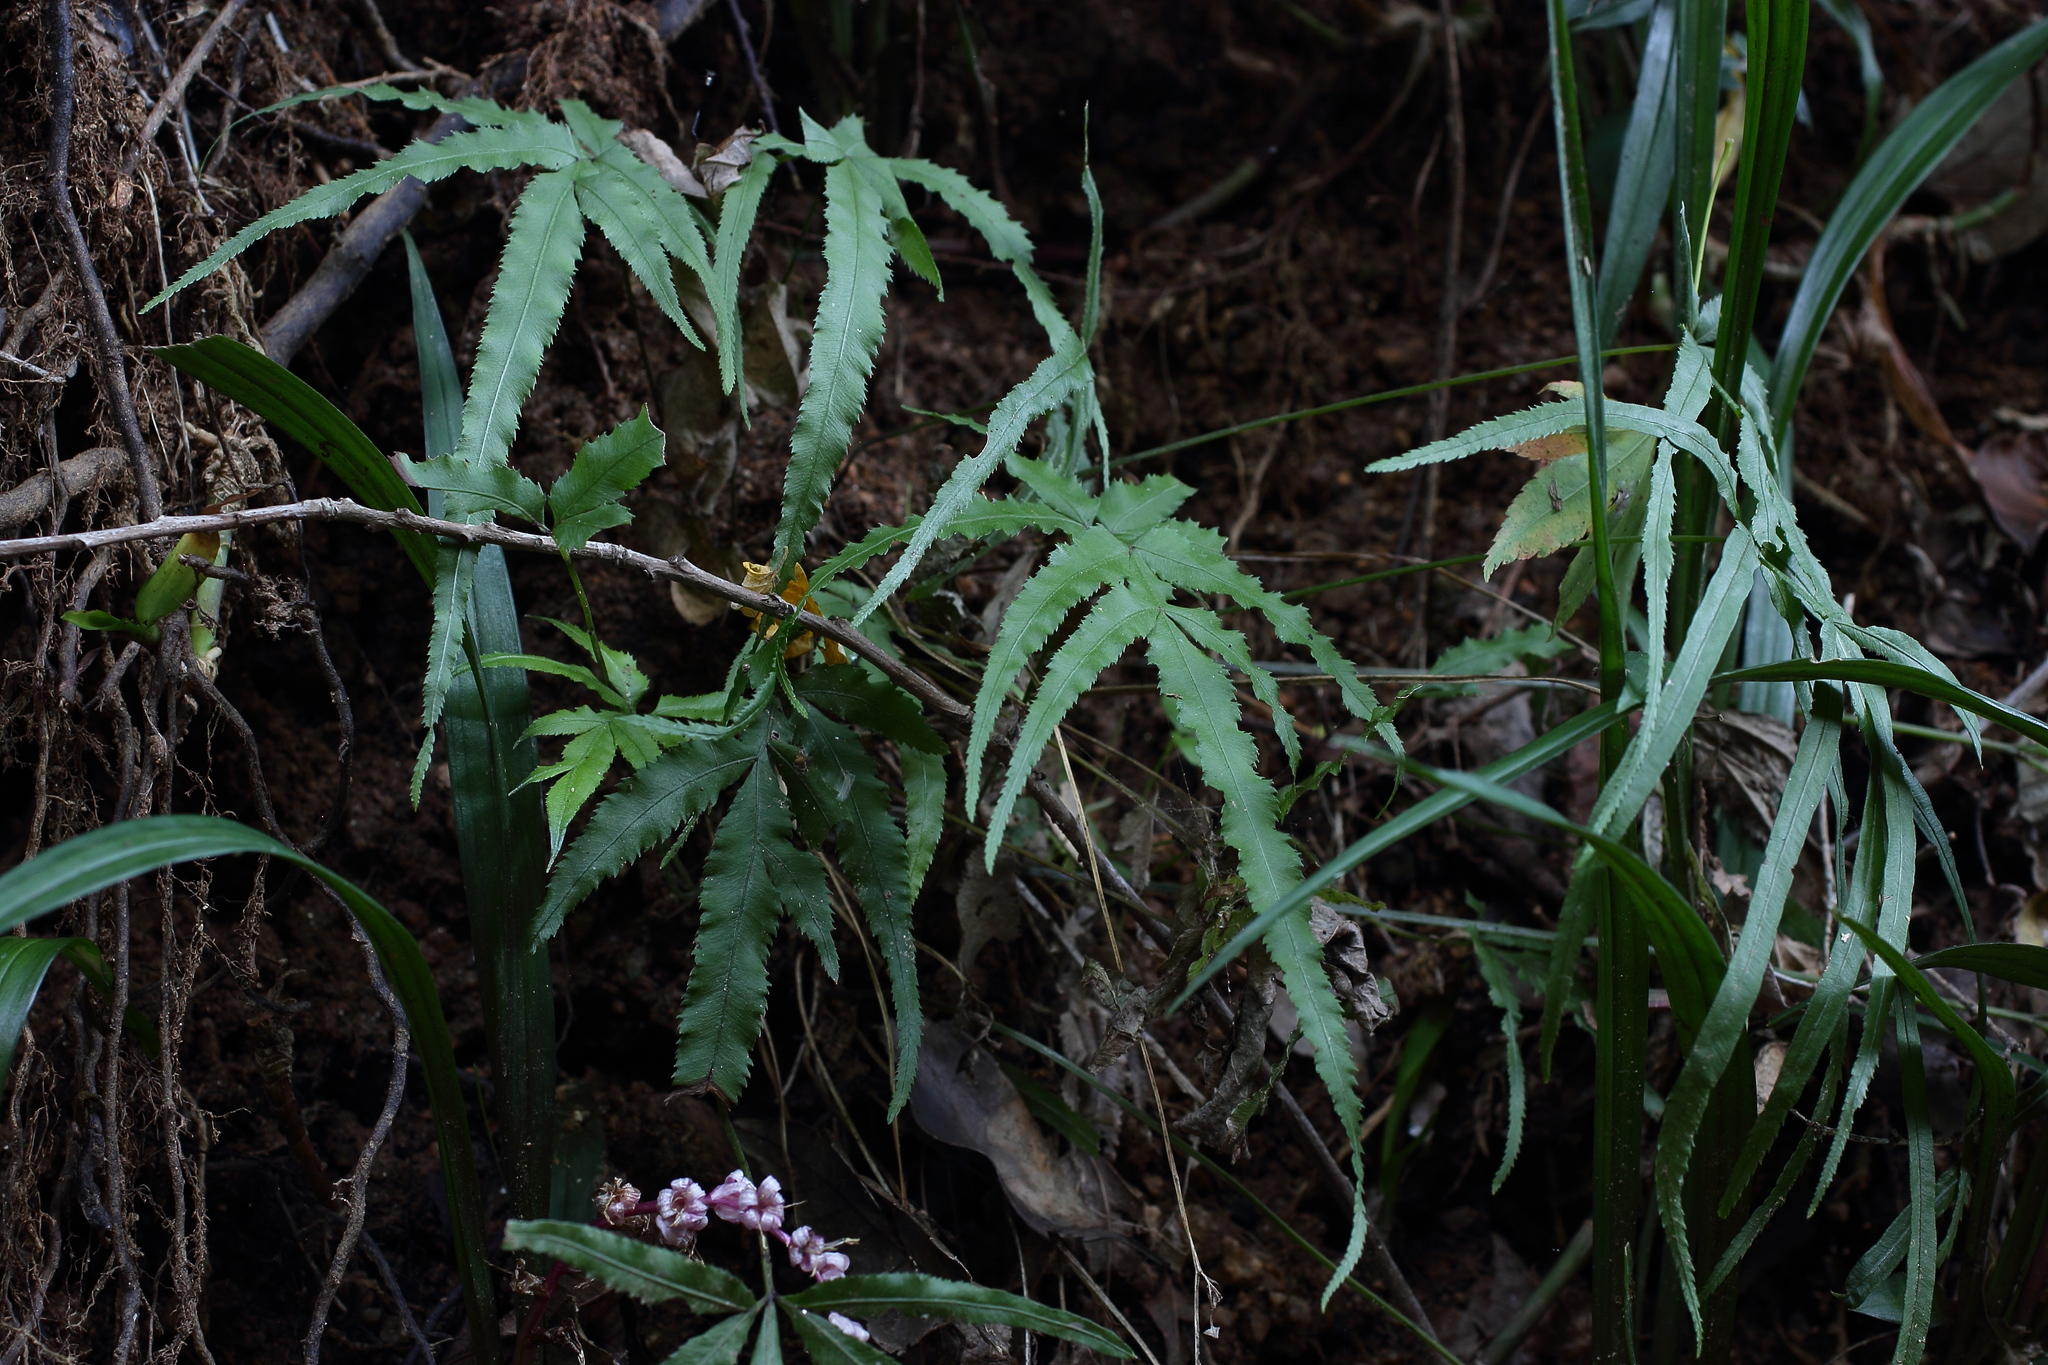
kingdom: Plantae
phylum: Tracheophyta
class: Polypodiopsida
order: Polypodiales
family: Pteridaceae
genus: Pteris
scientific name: Pteris multifida
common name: Spider brake
